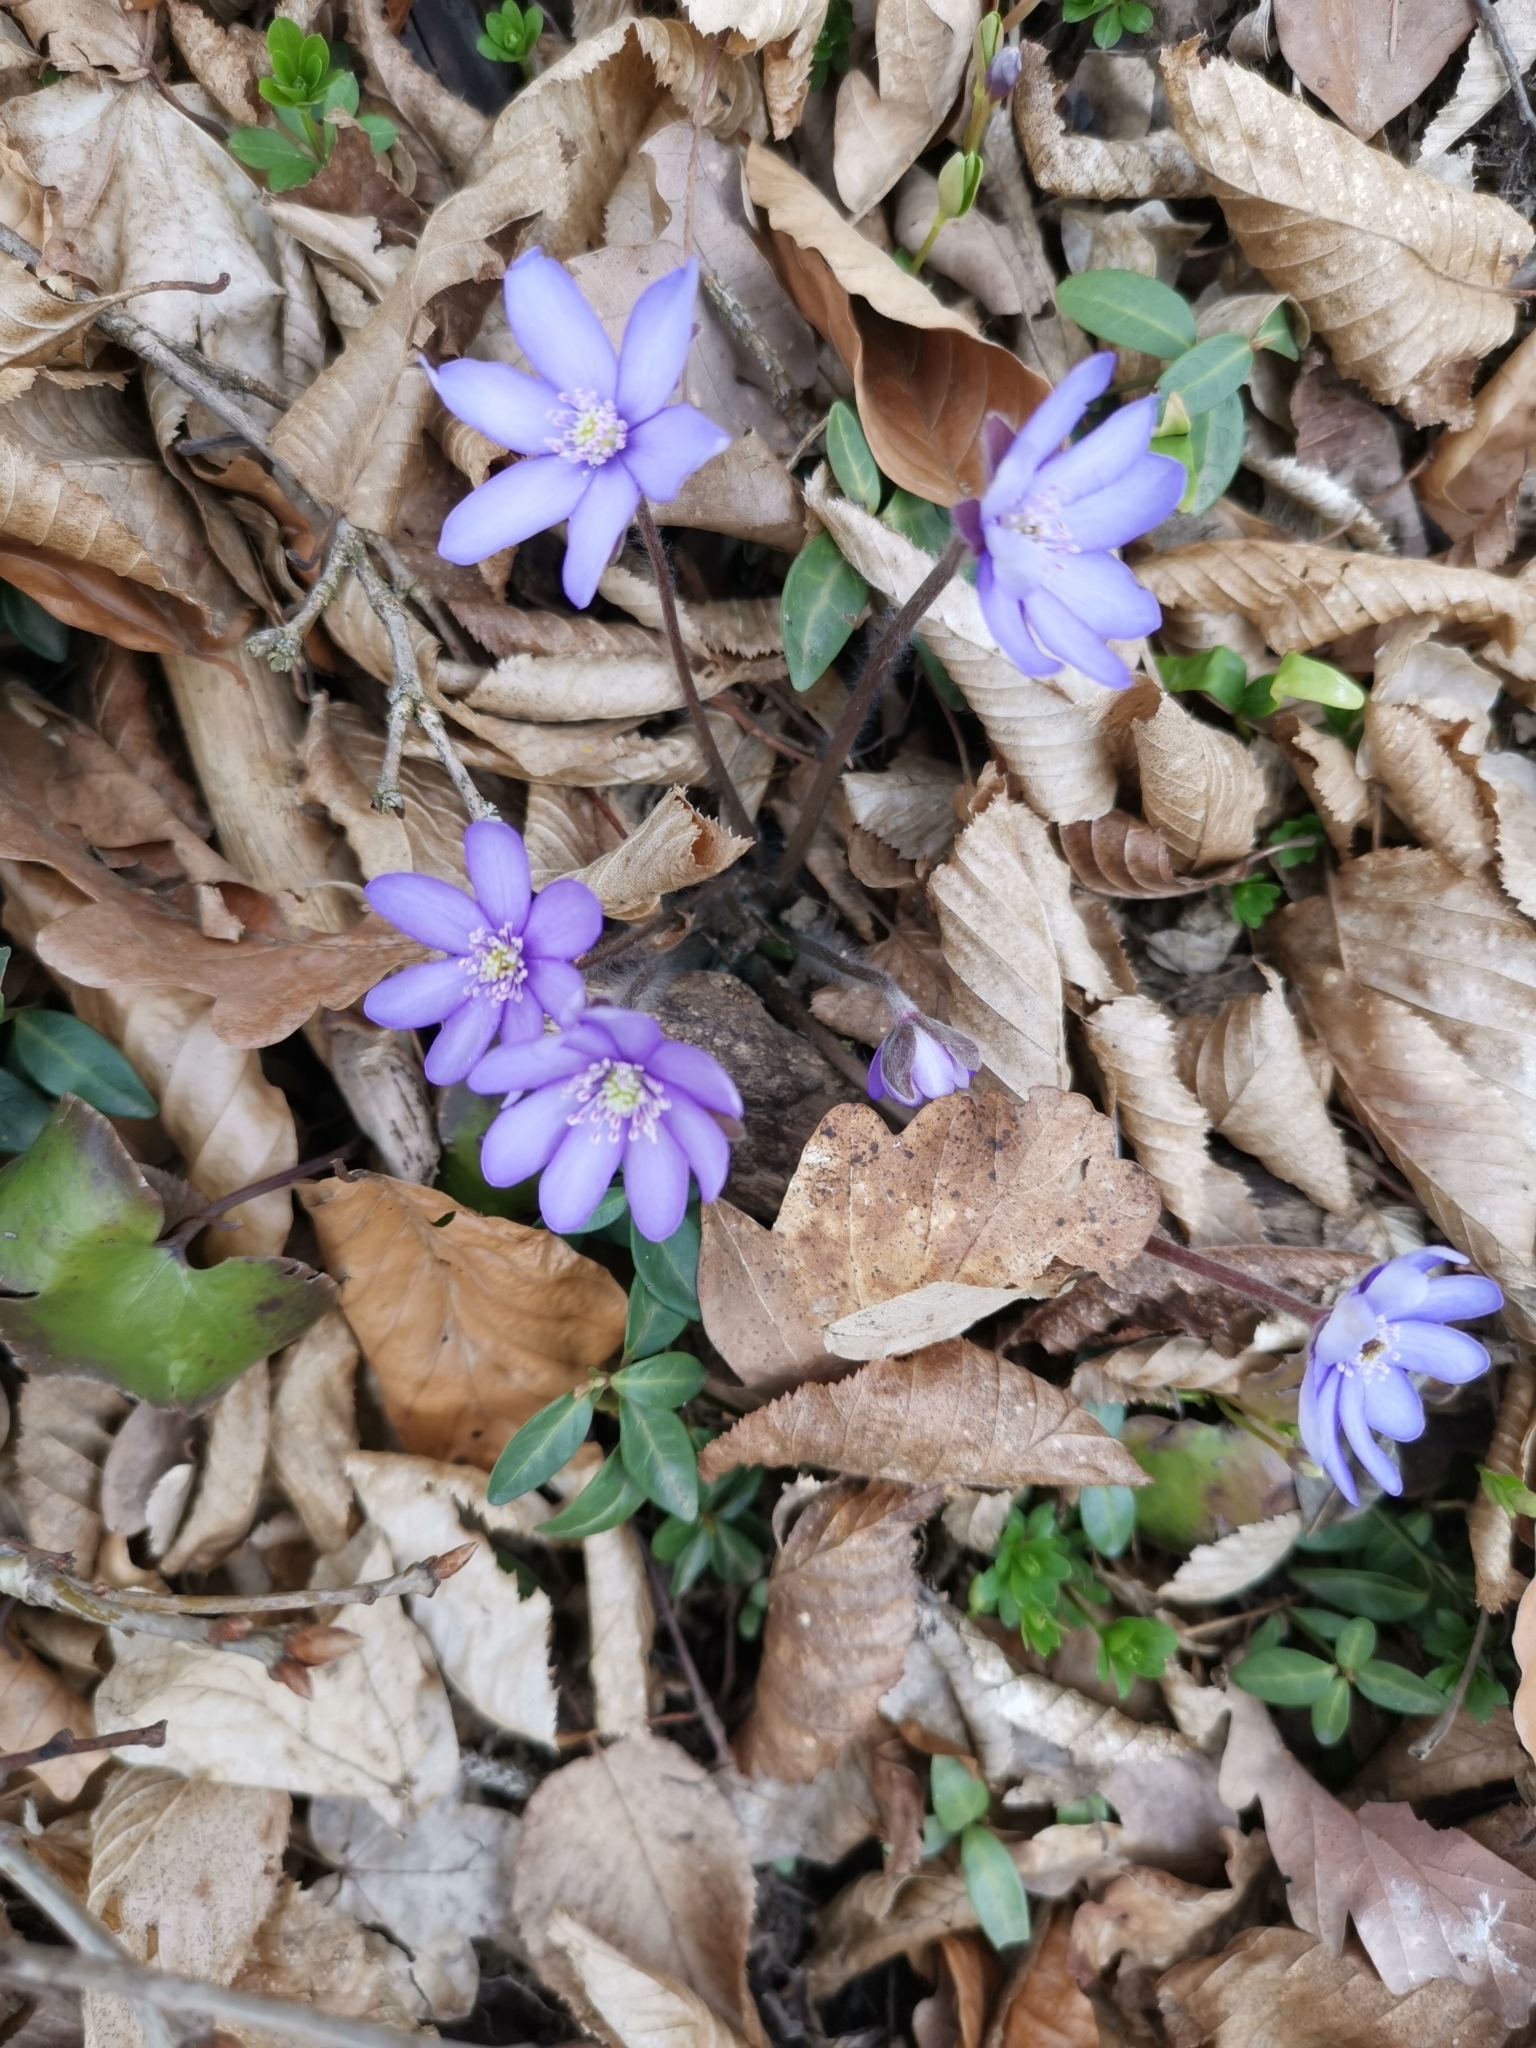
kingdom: Plantae
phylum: Tracheophyta
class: Magnoliopsida
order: Ranunculales
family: Ranunculaceae
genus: Hepatica
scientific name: Hepatica nobilis
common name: Liverleaf
